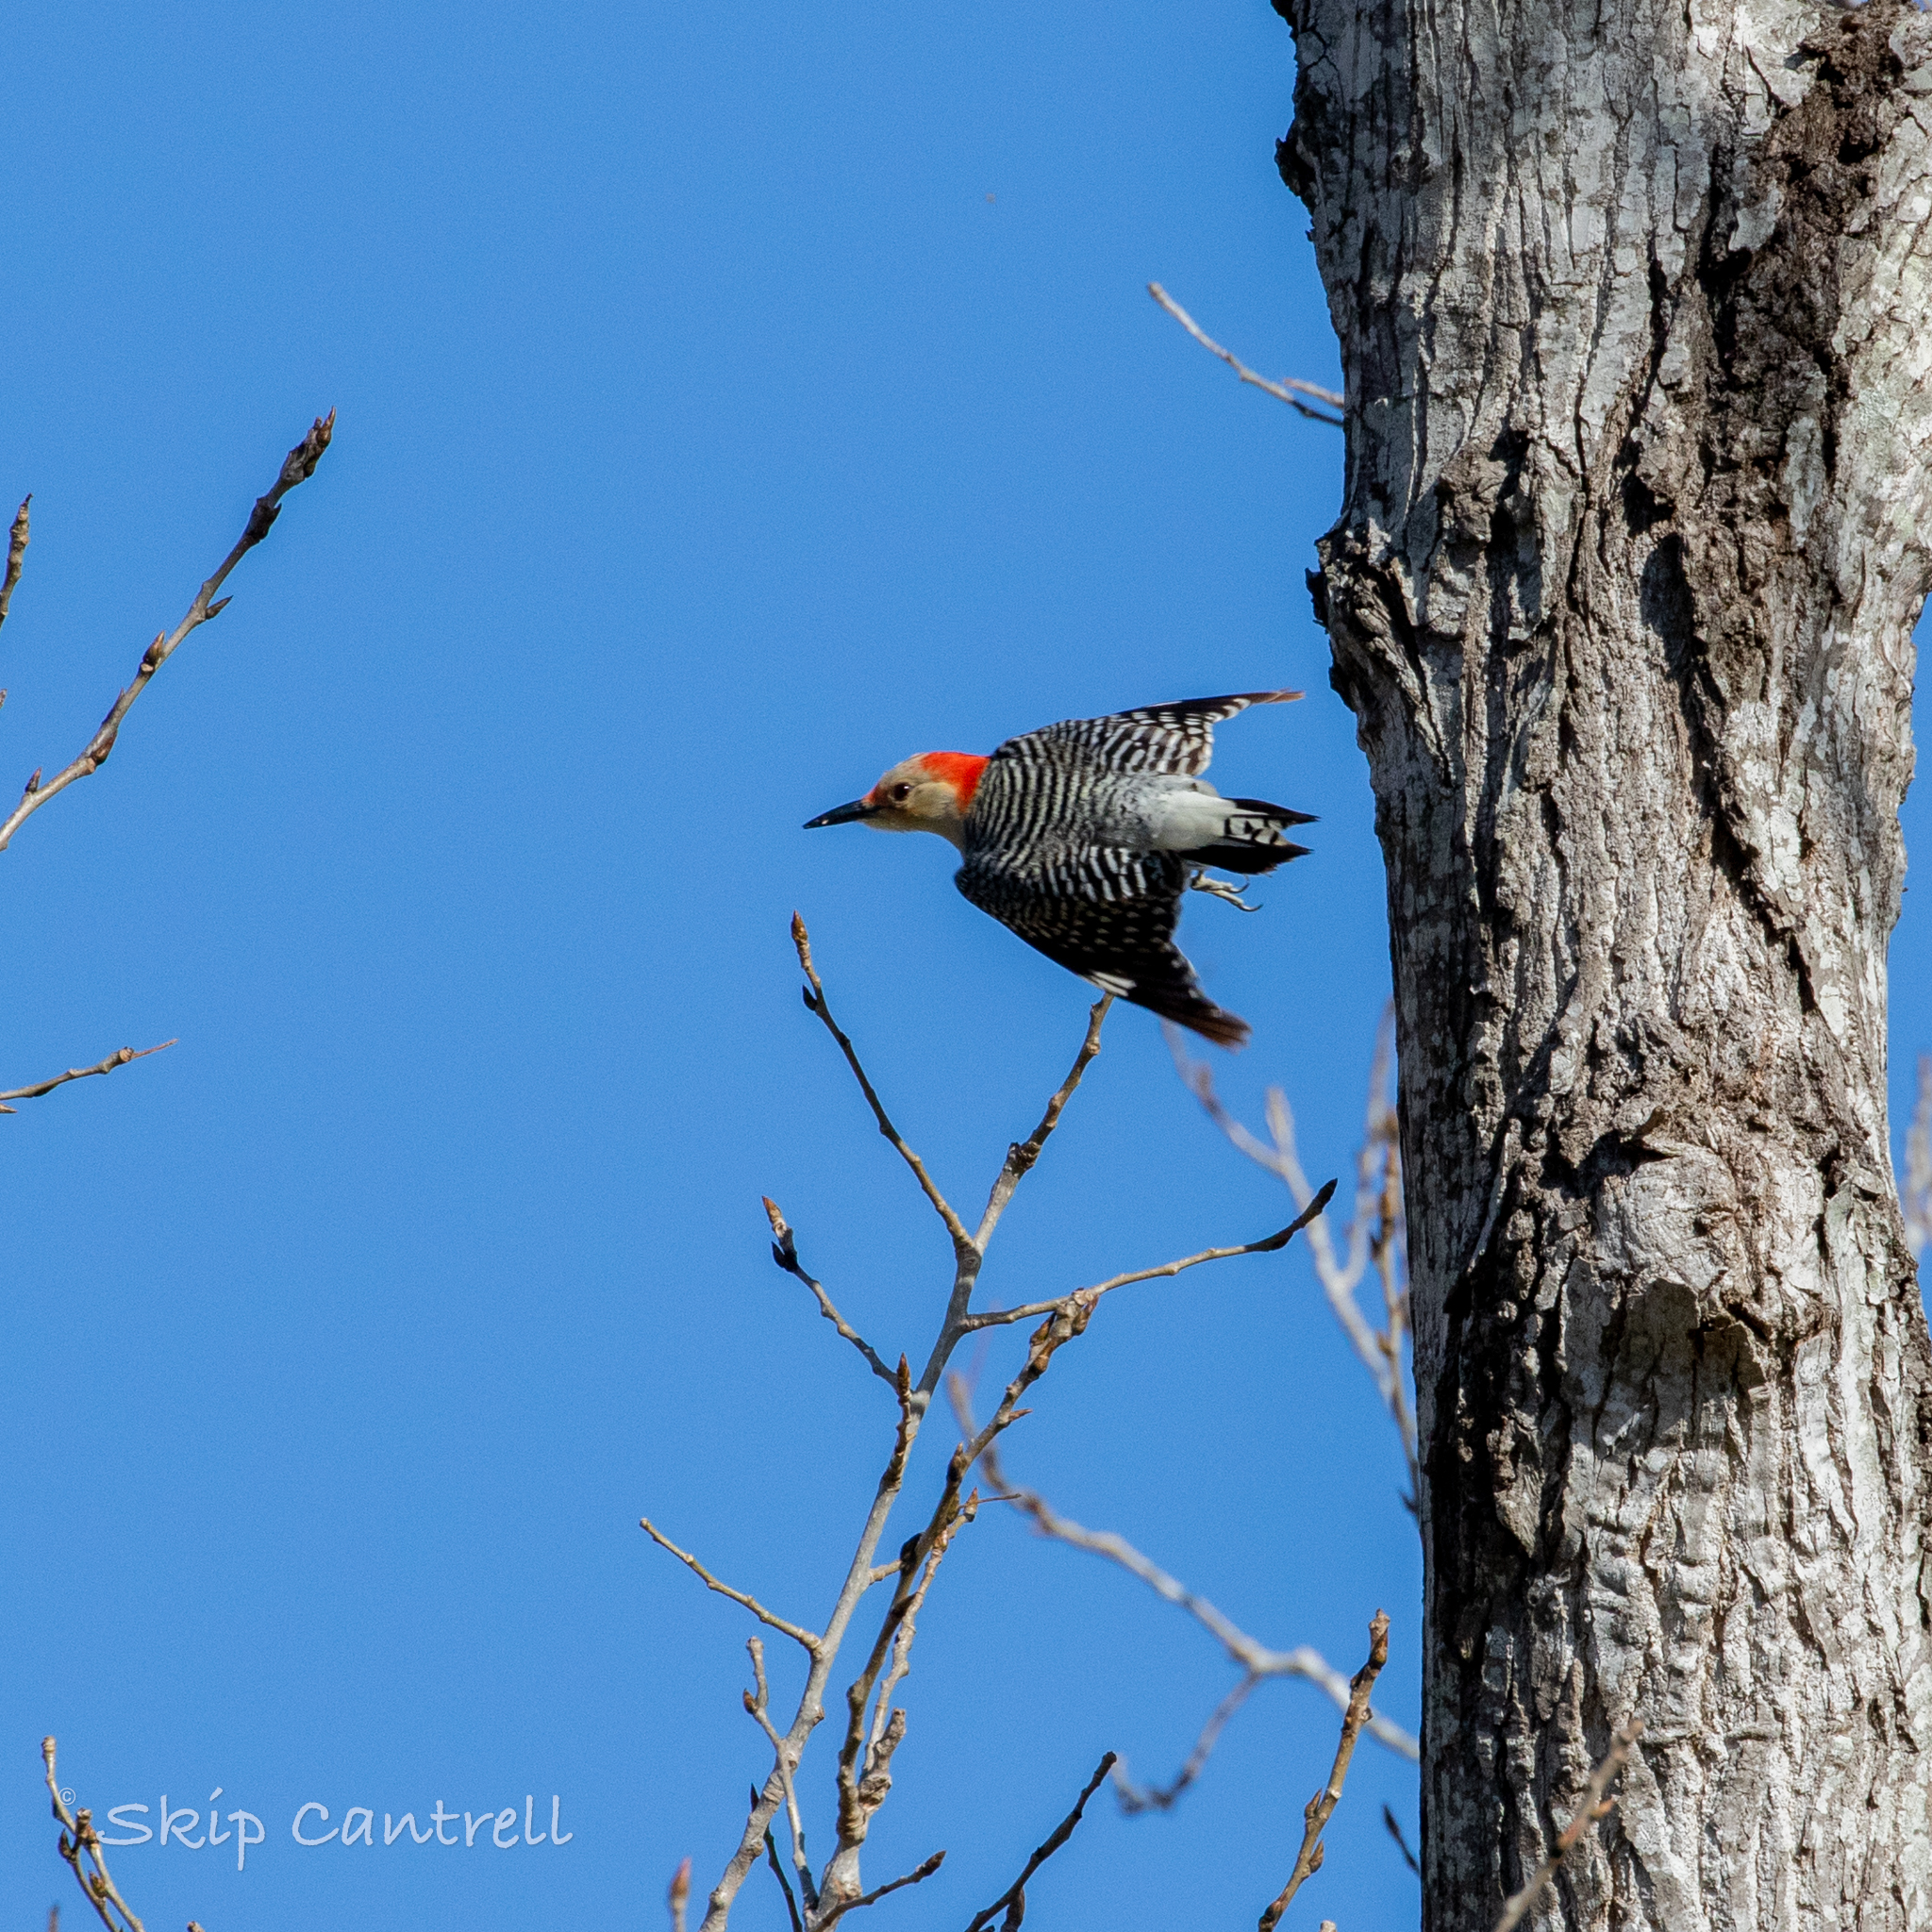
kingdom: Animalia
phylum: Chordata
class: Aves
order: Piciformes
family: Picidae
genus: Melanerpes
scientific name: Melanerpes carolinus
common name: Red-bellied woodpecker
